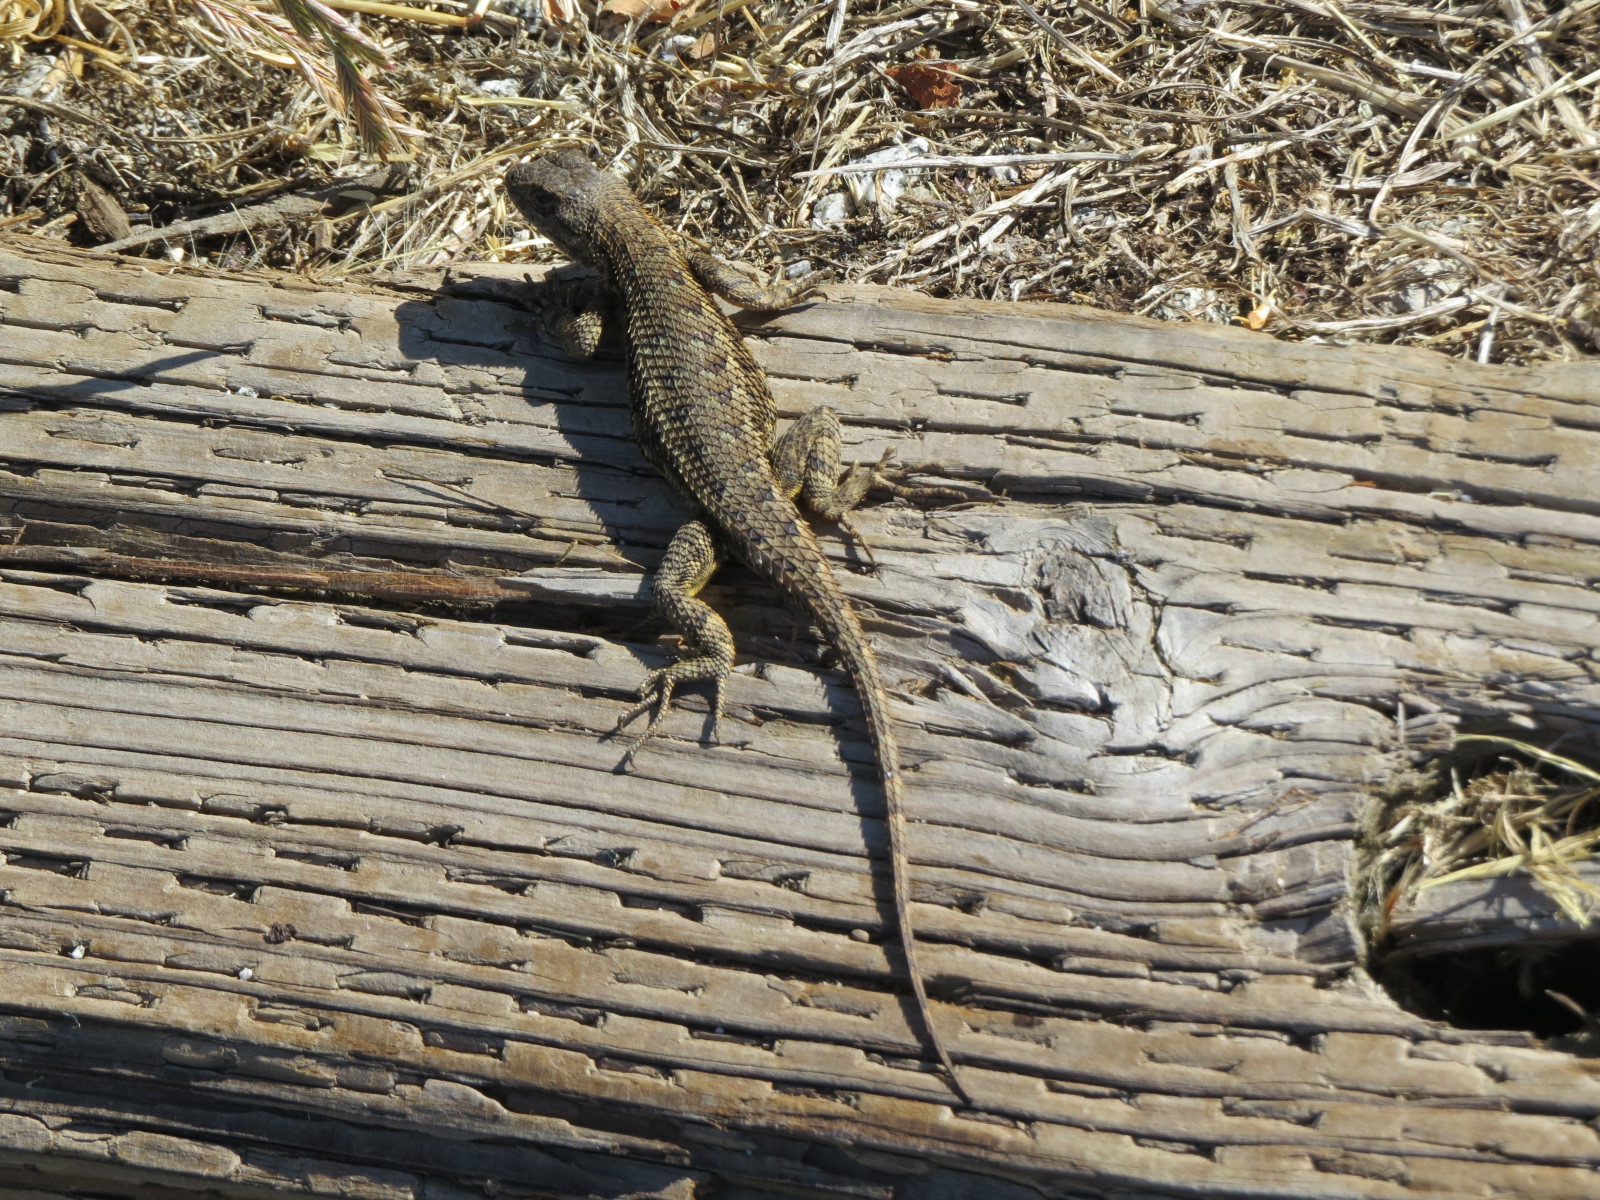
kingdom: Animalia
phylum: Chordata
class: Squamata
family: Phrynosomatidae
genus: Sceloporus
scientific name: Sceloporus occidentalis
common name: Western fence lizard
